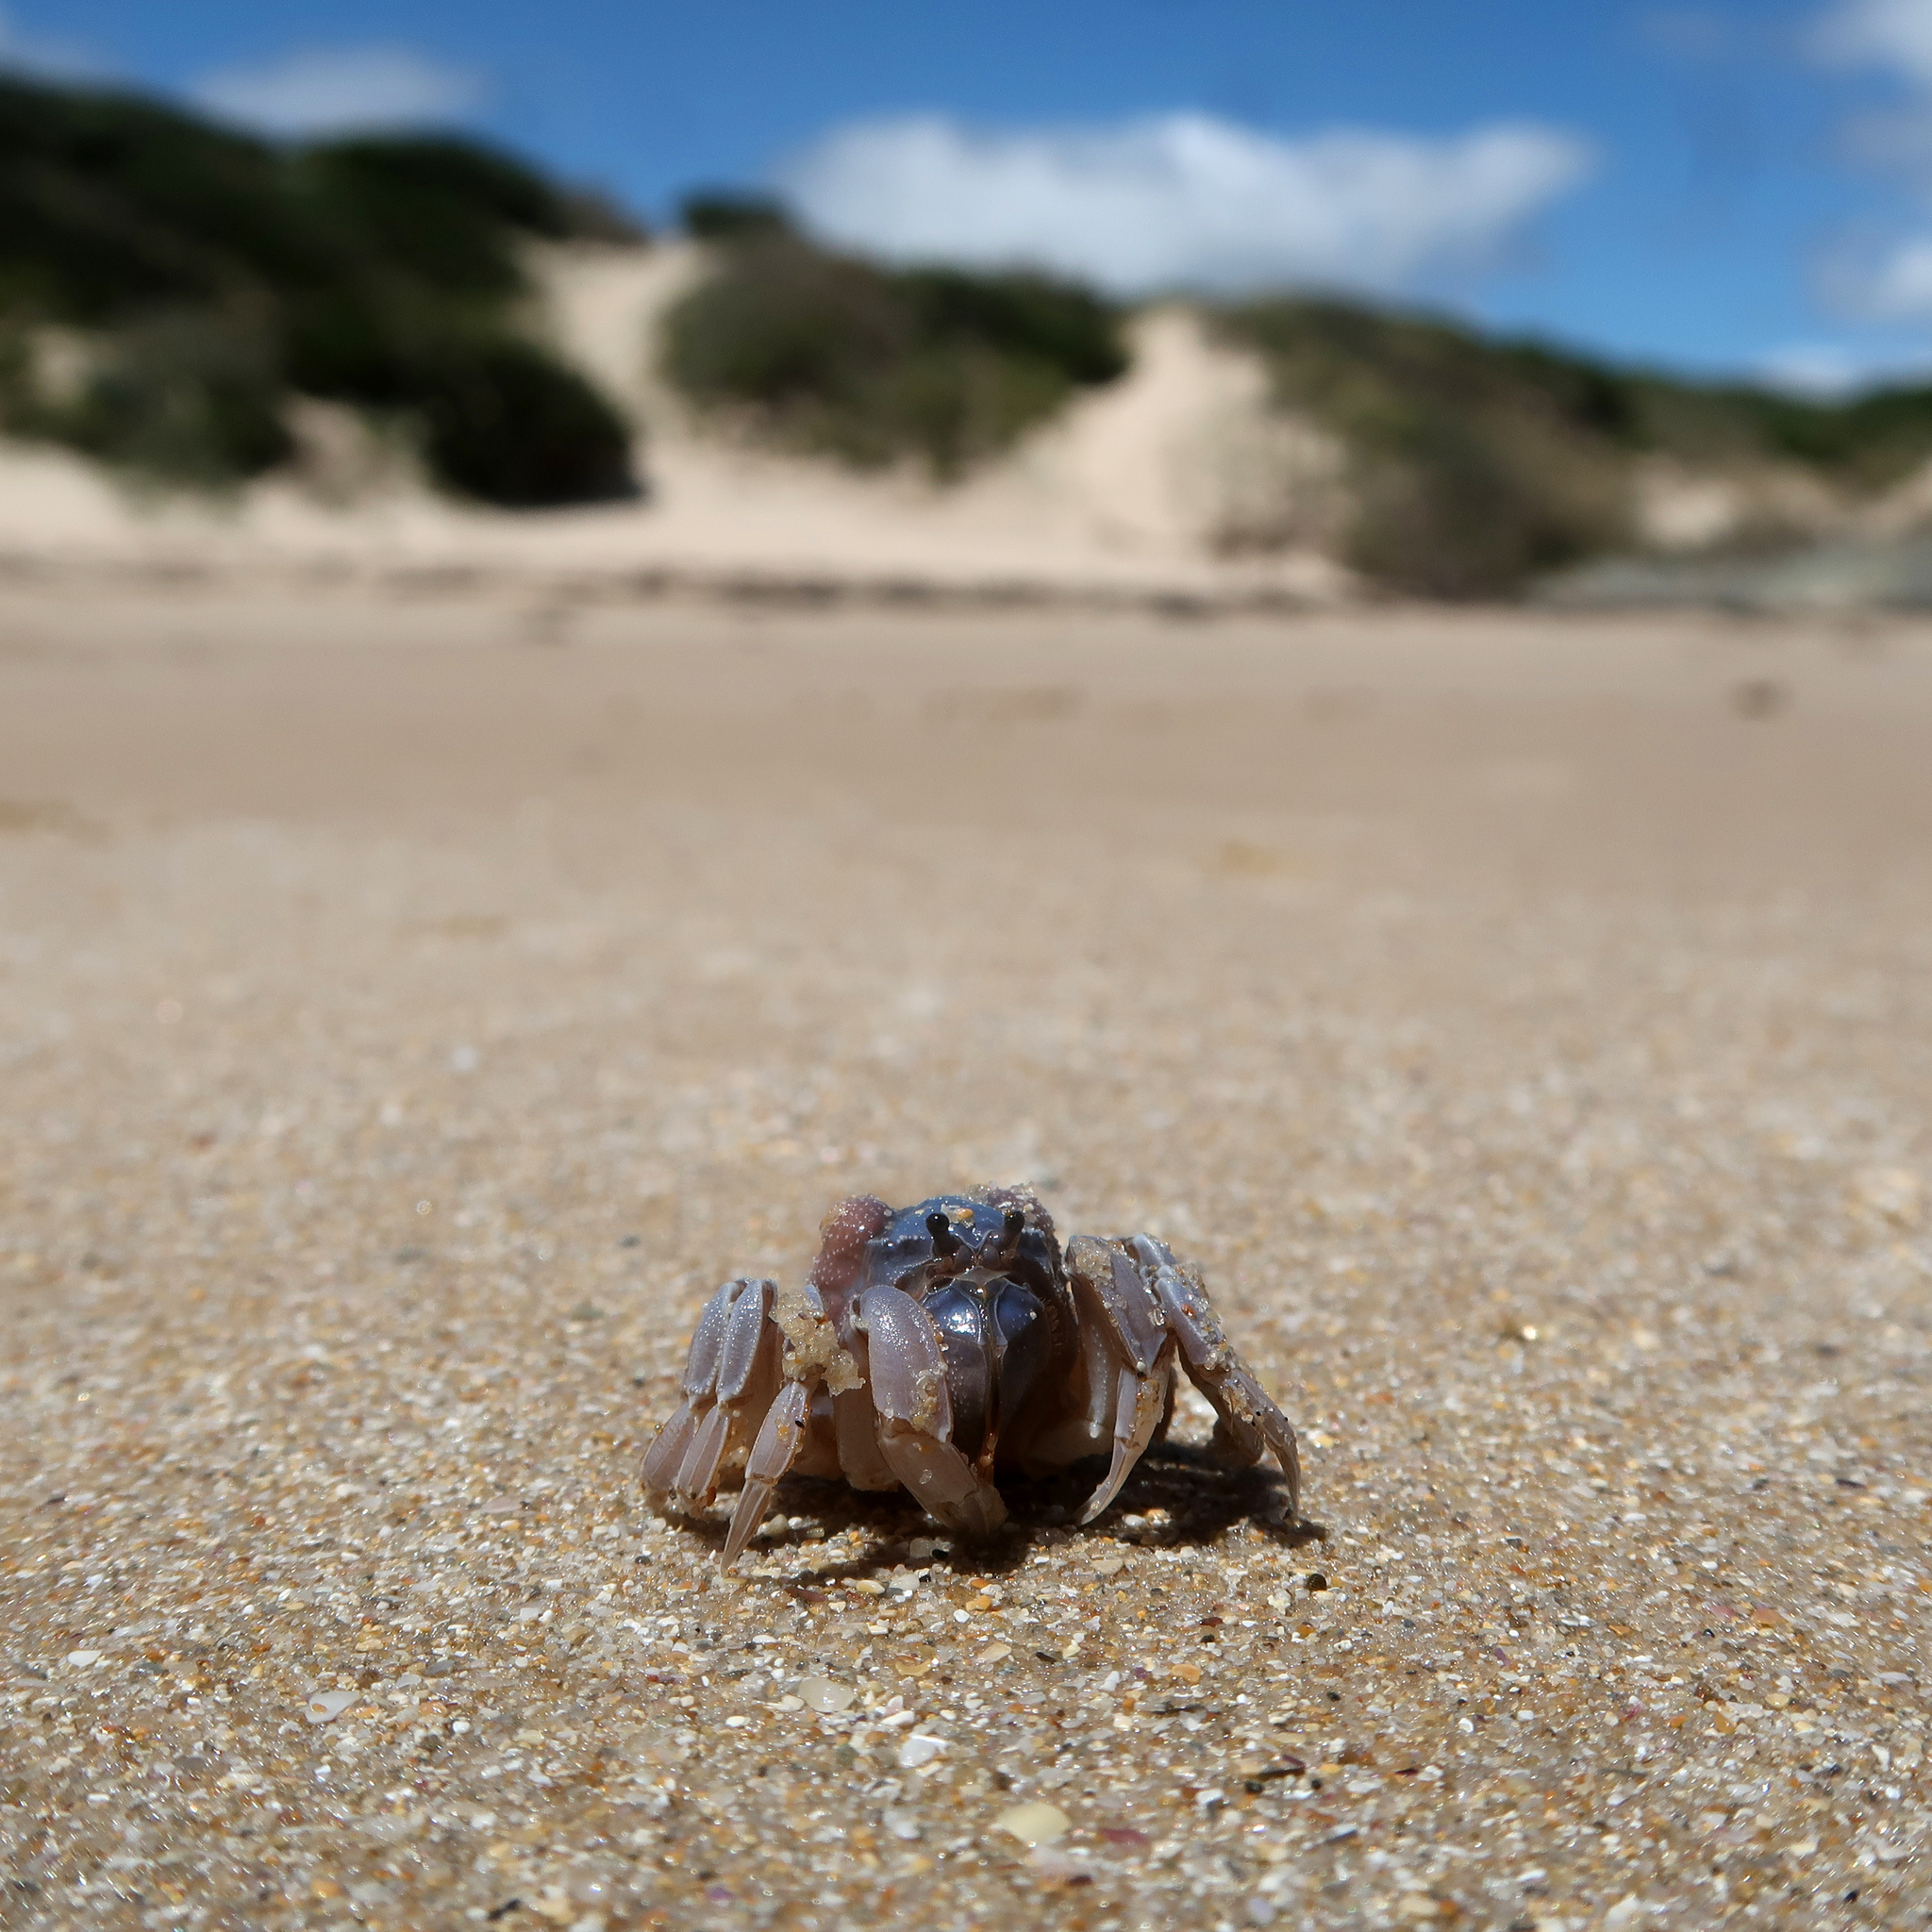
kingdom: Animalia
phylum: Arthropoda
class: Malacostraca
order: Decapoda
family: Mictyridae
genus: Mictyris
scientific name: Mictyris platycheles
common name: Dark blue soldier crab
